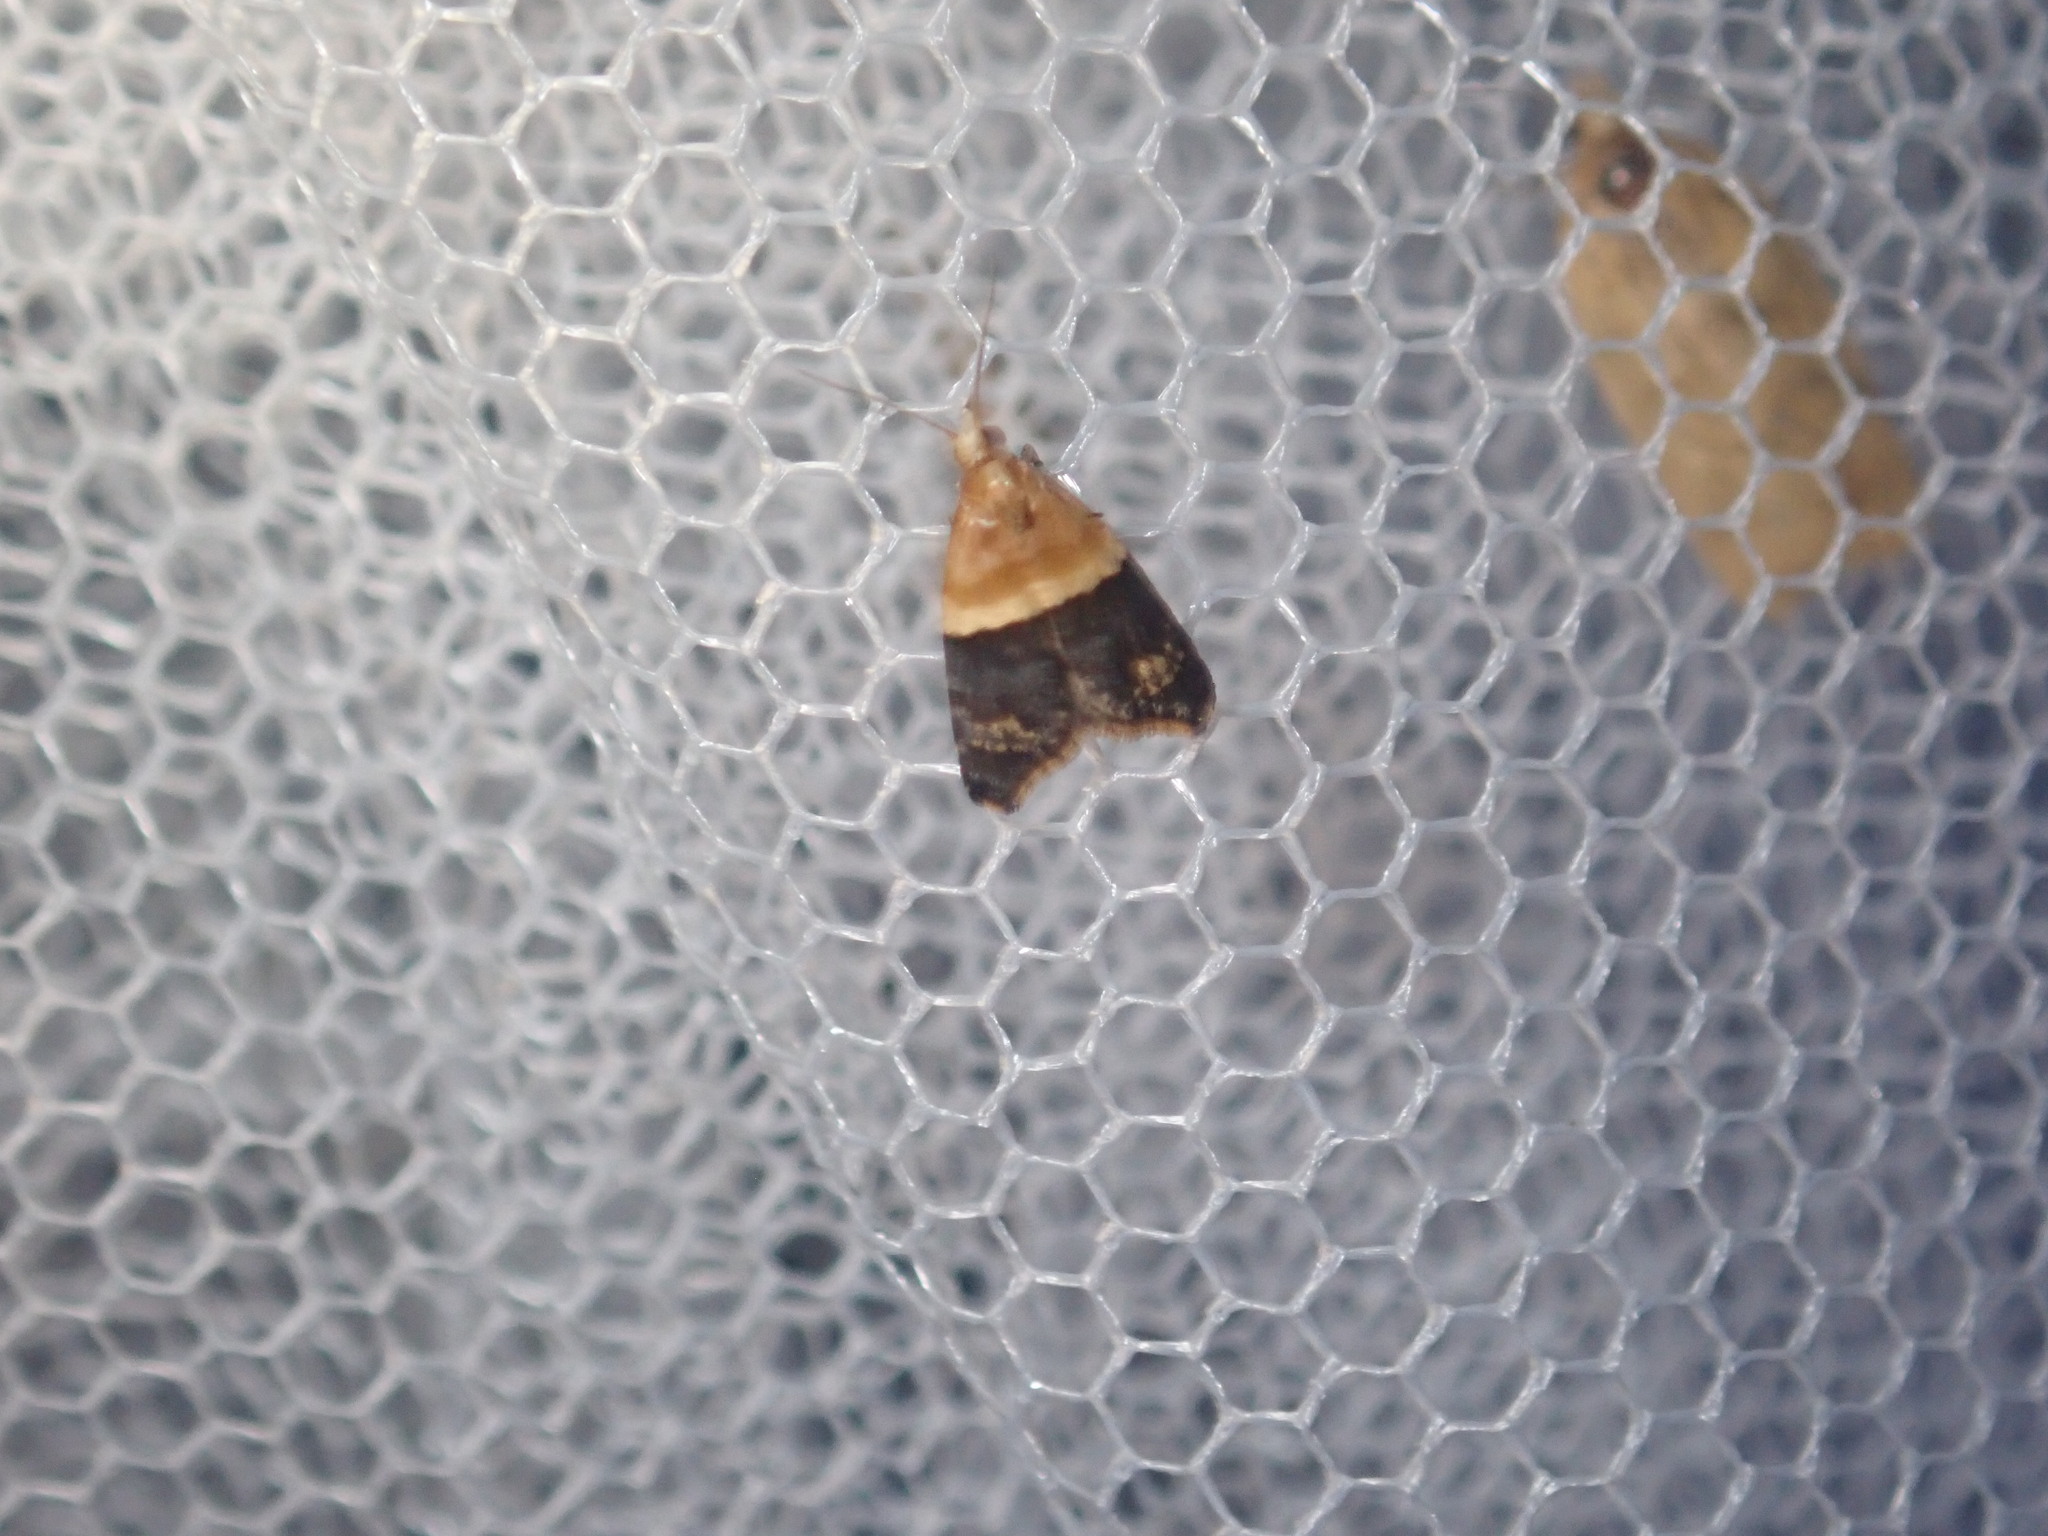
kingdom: Animalia
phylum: Arthropoda
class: Insecta
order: Lepidoptera
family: Tortricidae
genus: Authomaema
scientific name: Authomaema diemeniana
